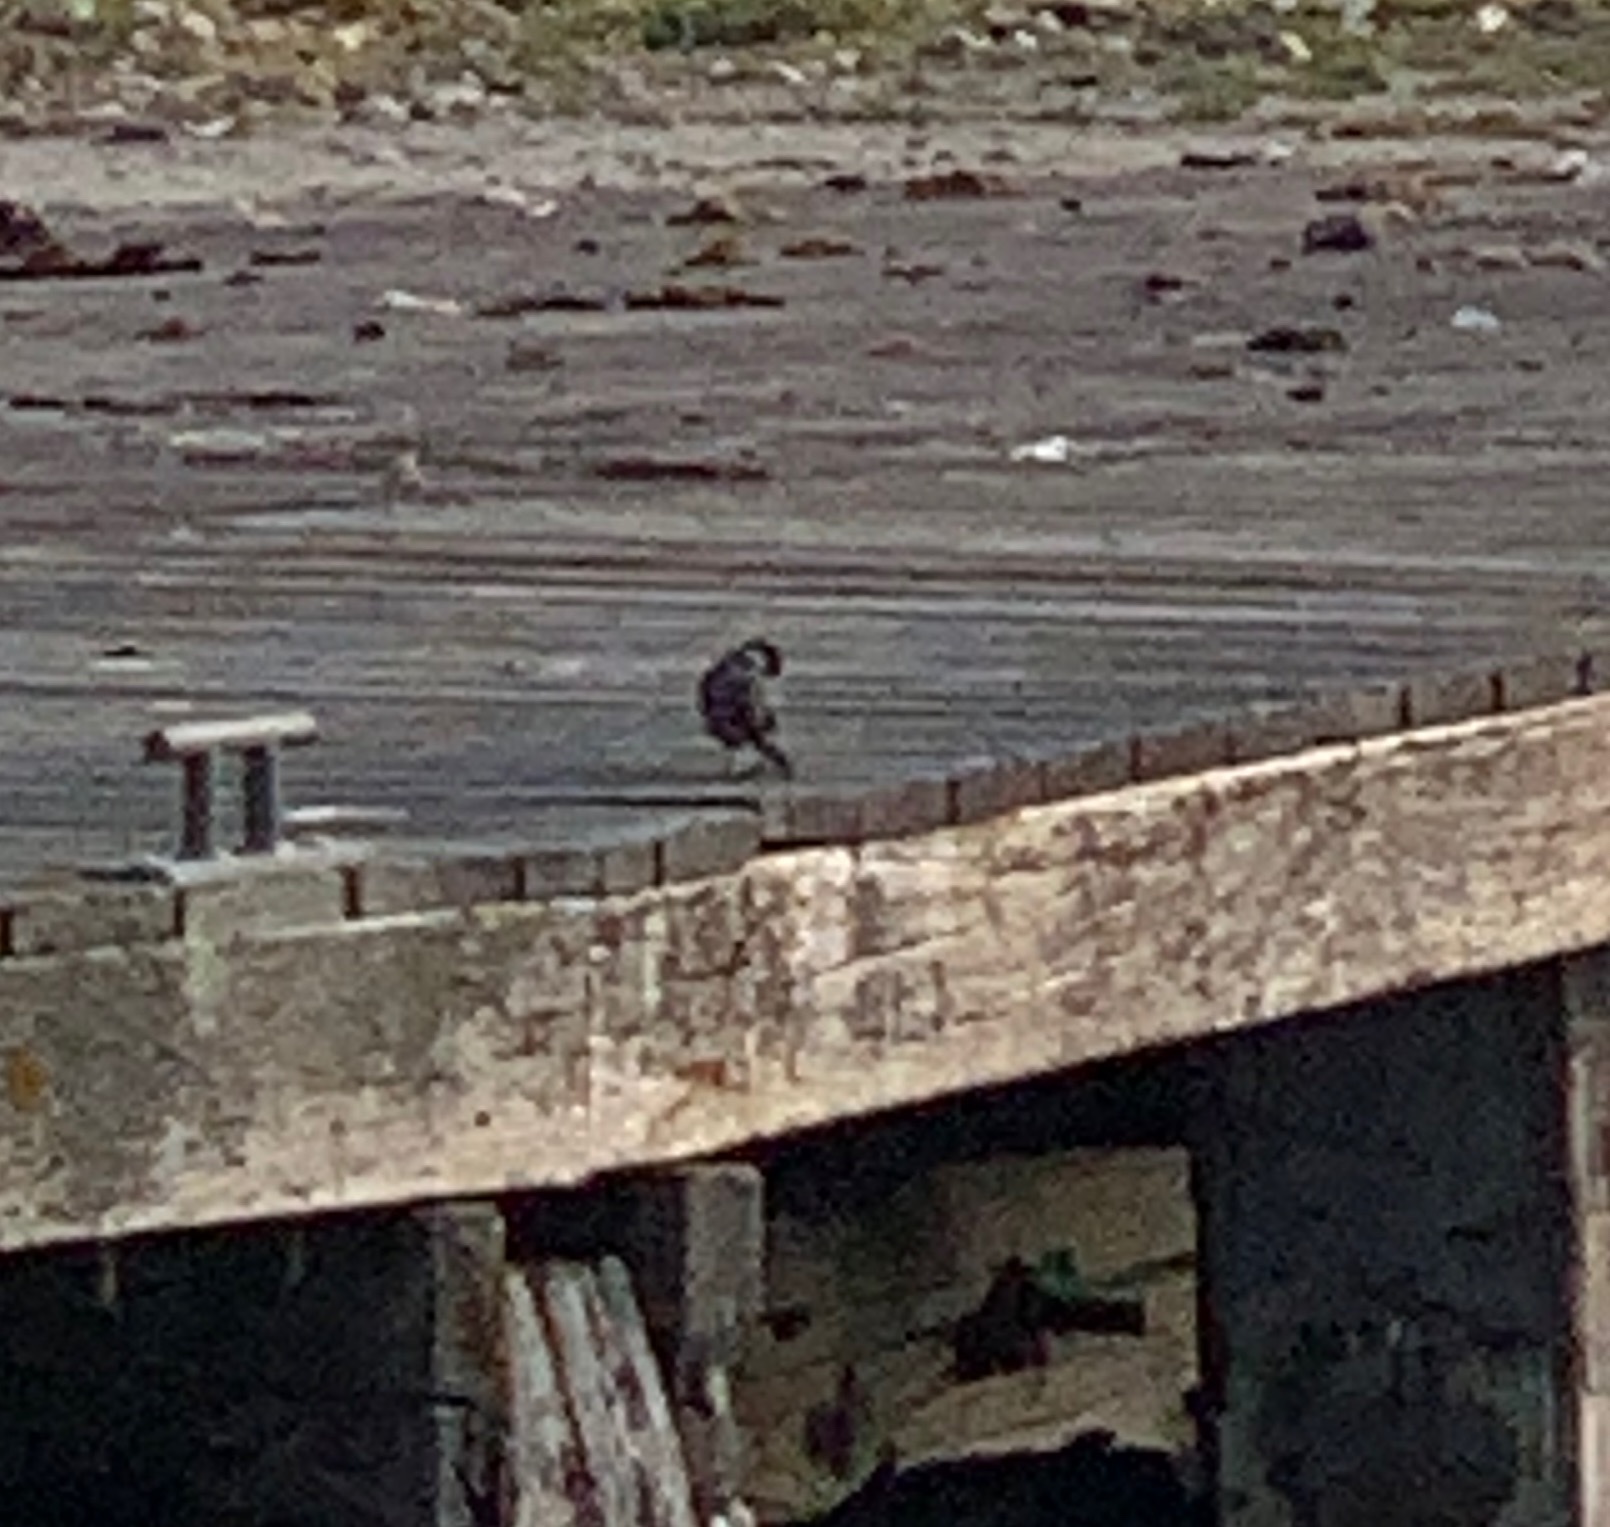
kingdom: Animalia
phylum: Chordata
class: Aves
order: Passeriformes
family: Motacillidae
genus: Motacilla
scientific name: Motacilla alba
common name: White wagtail
